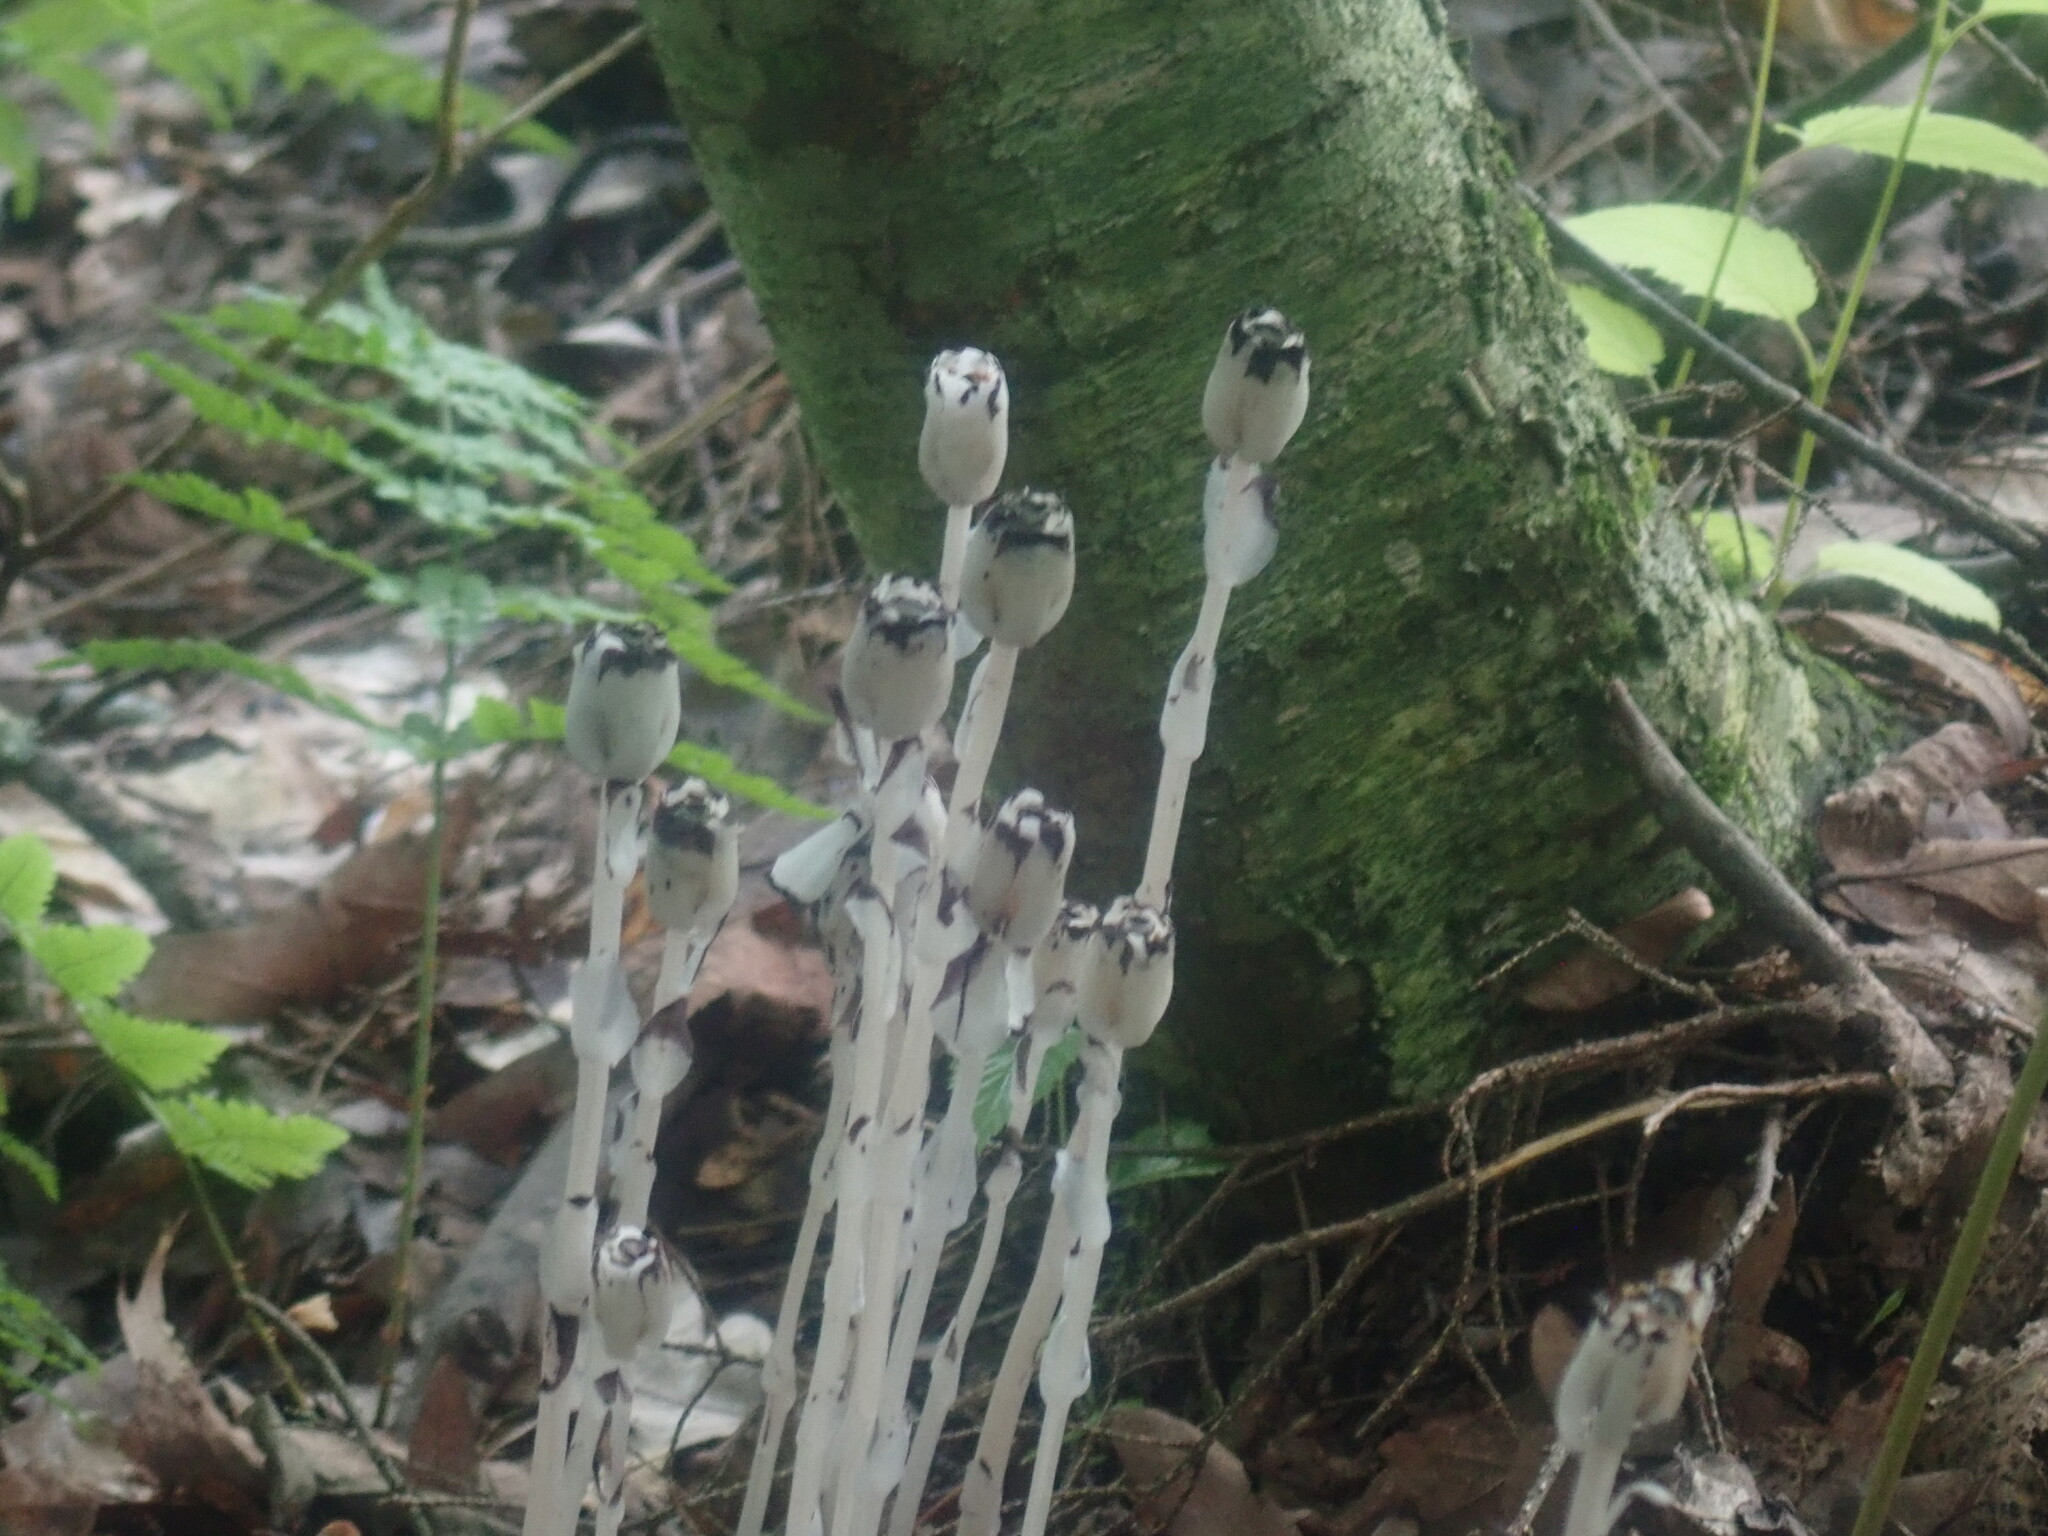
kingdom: Plantae
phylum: Tracheophyta
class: Magnoliopsida
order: Ericales
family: Ericaceae
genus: Monotropa
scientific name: Monotropa uniflora
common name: Convulsion root
